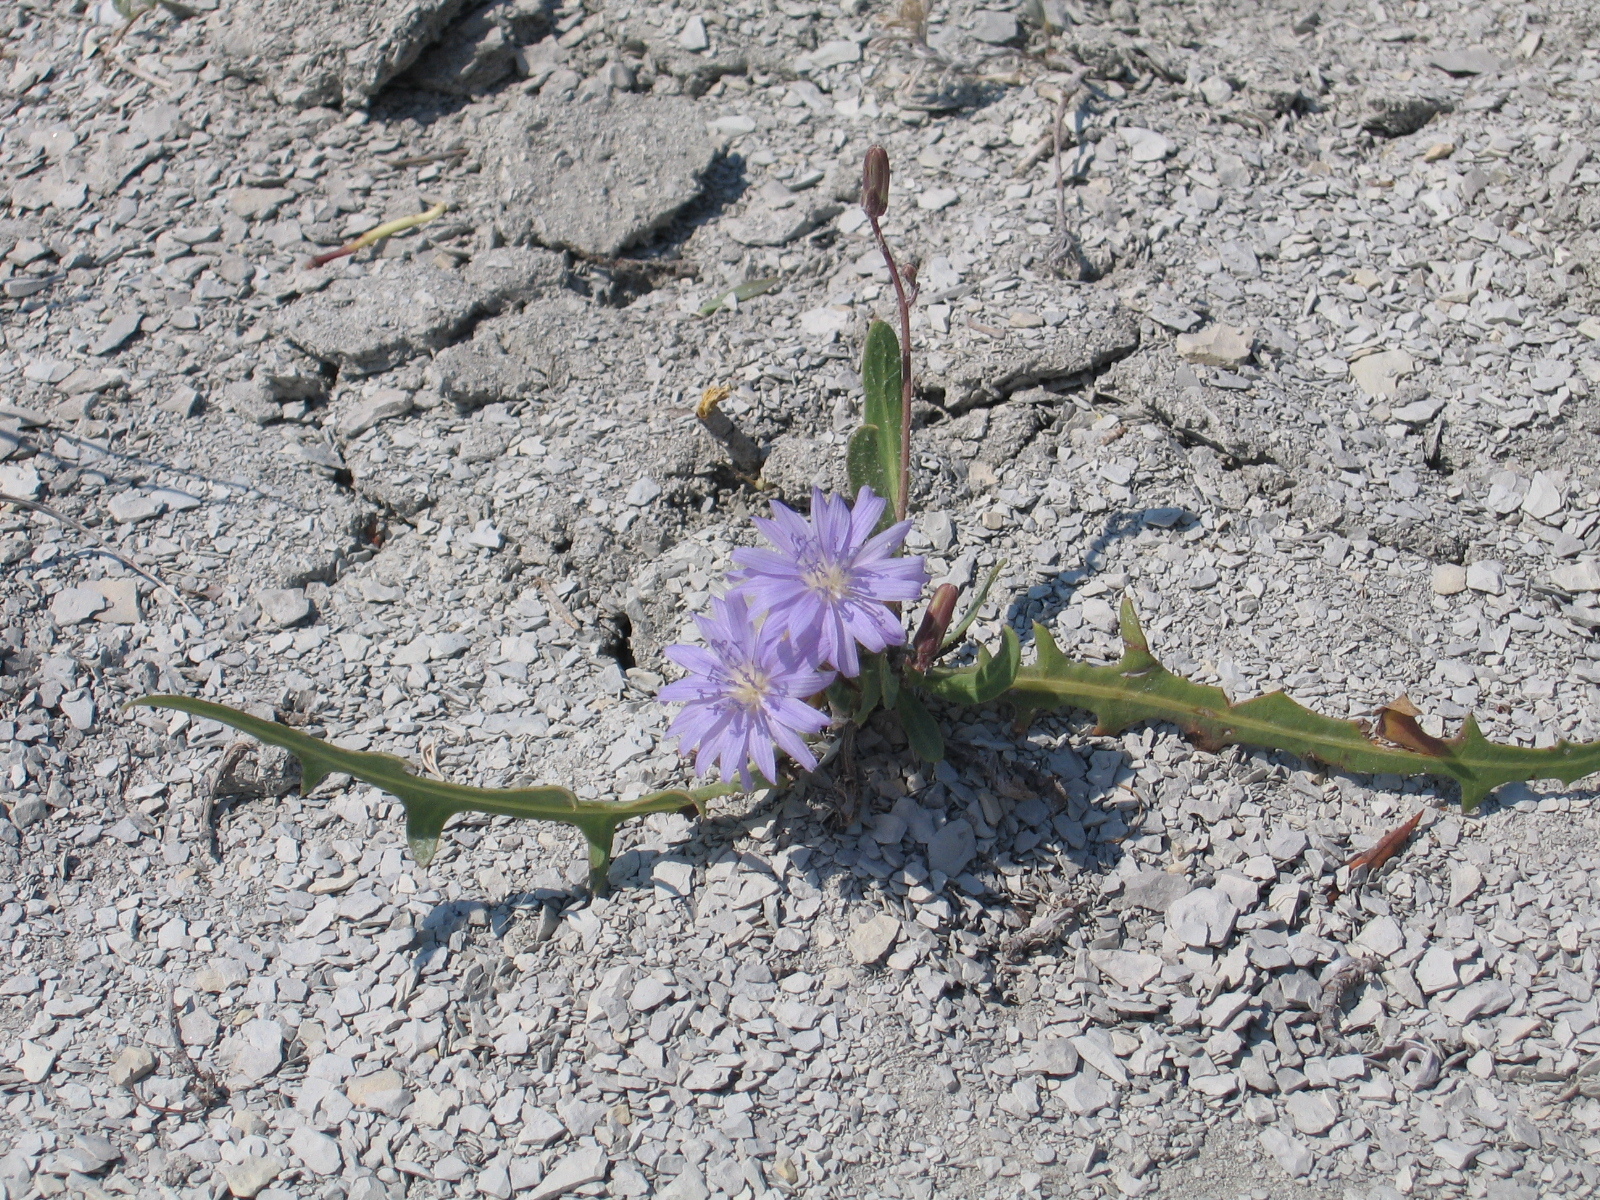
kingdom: Plantae
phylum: Tracheophyta
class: Magnoliopsida
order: Asterales
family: Asteraceae
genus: Lactuca
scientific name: Lactuca tatarica
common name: Blue lettuce
